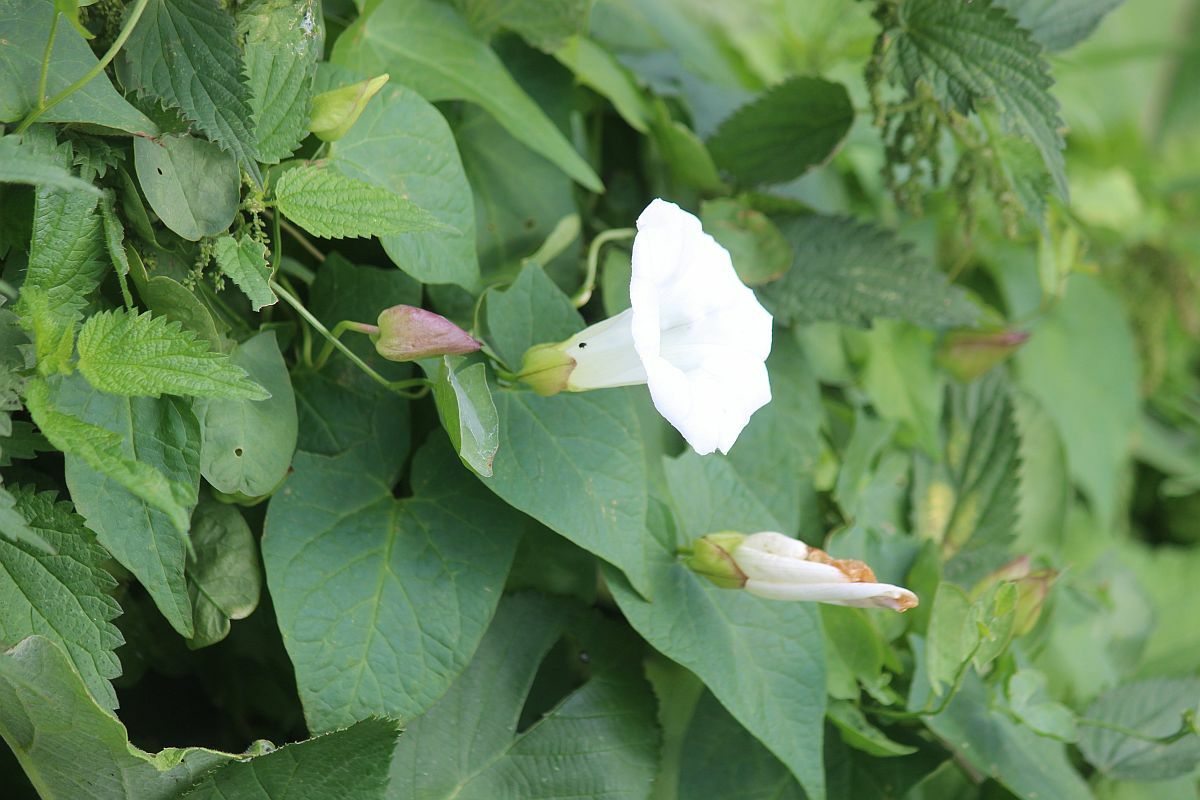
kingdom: Plantae
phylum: Tracheophyta
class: Magnoliopsida
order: Solanales
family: Convolvulaceae
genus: Calystegia
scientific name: Calystegia silvatica
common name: Large bindweed
